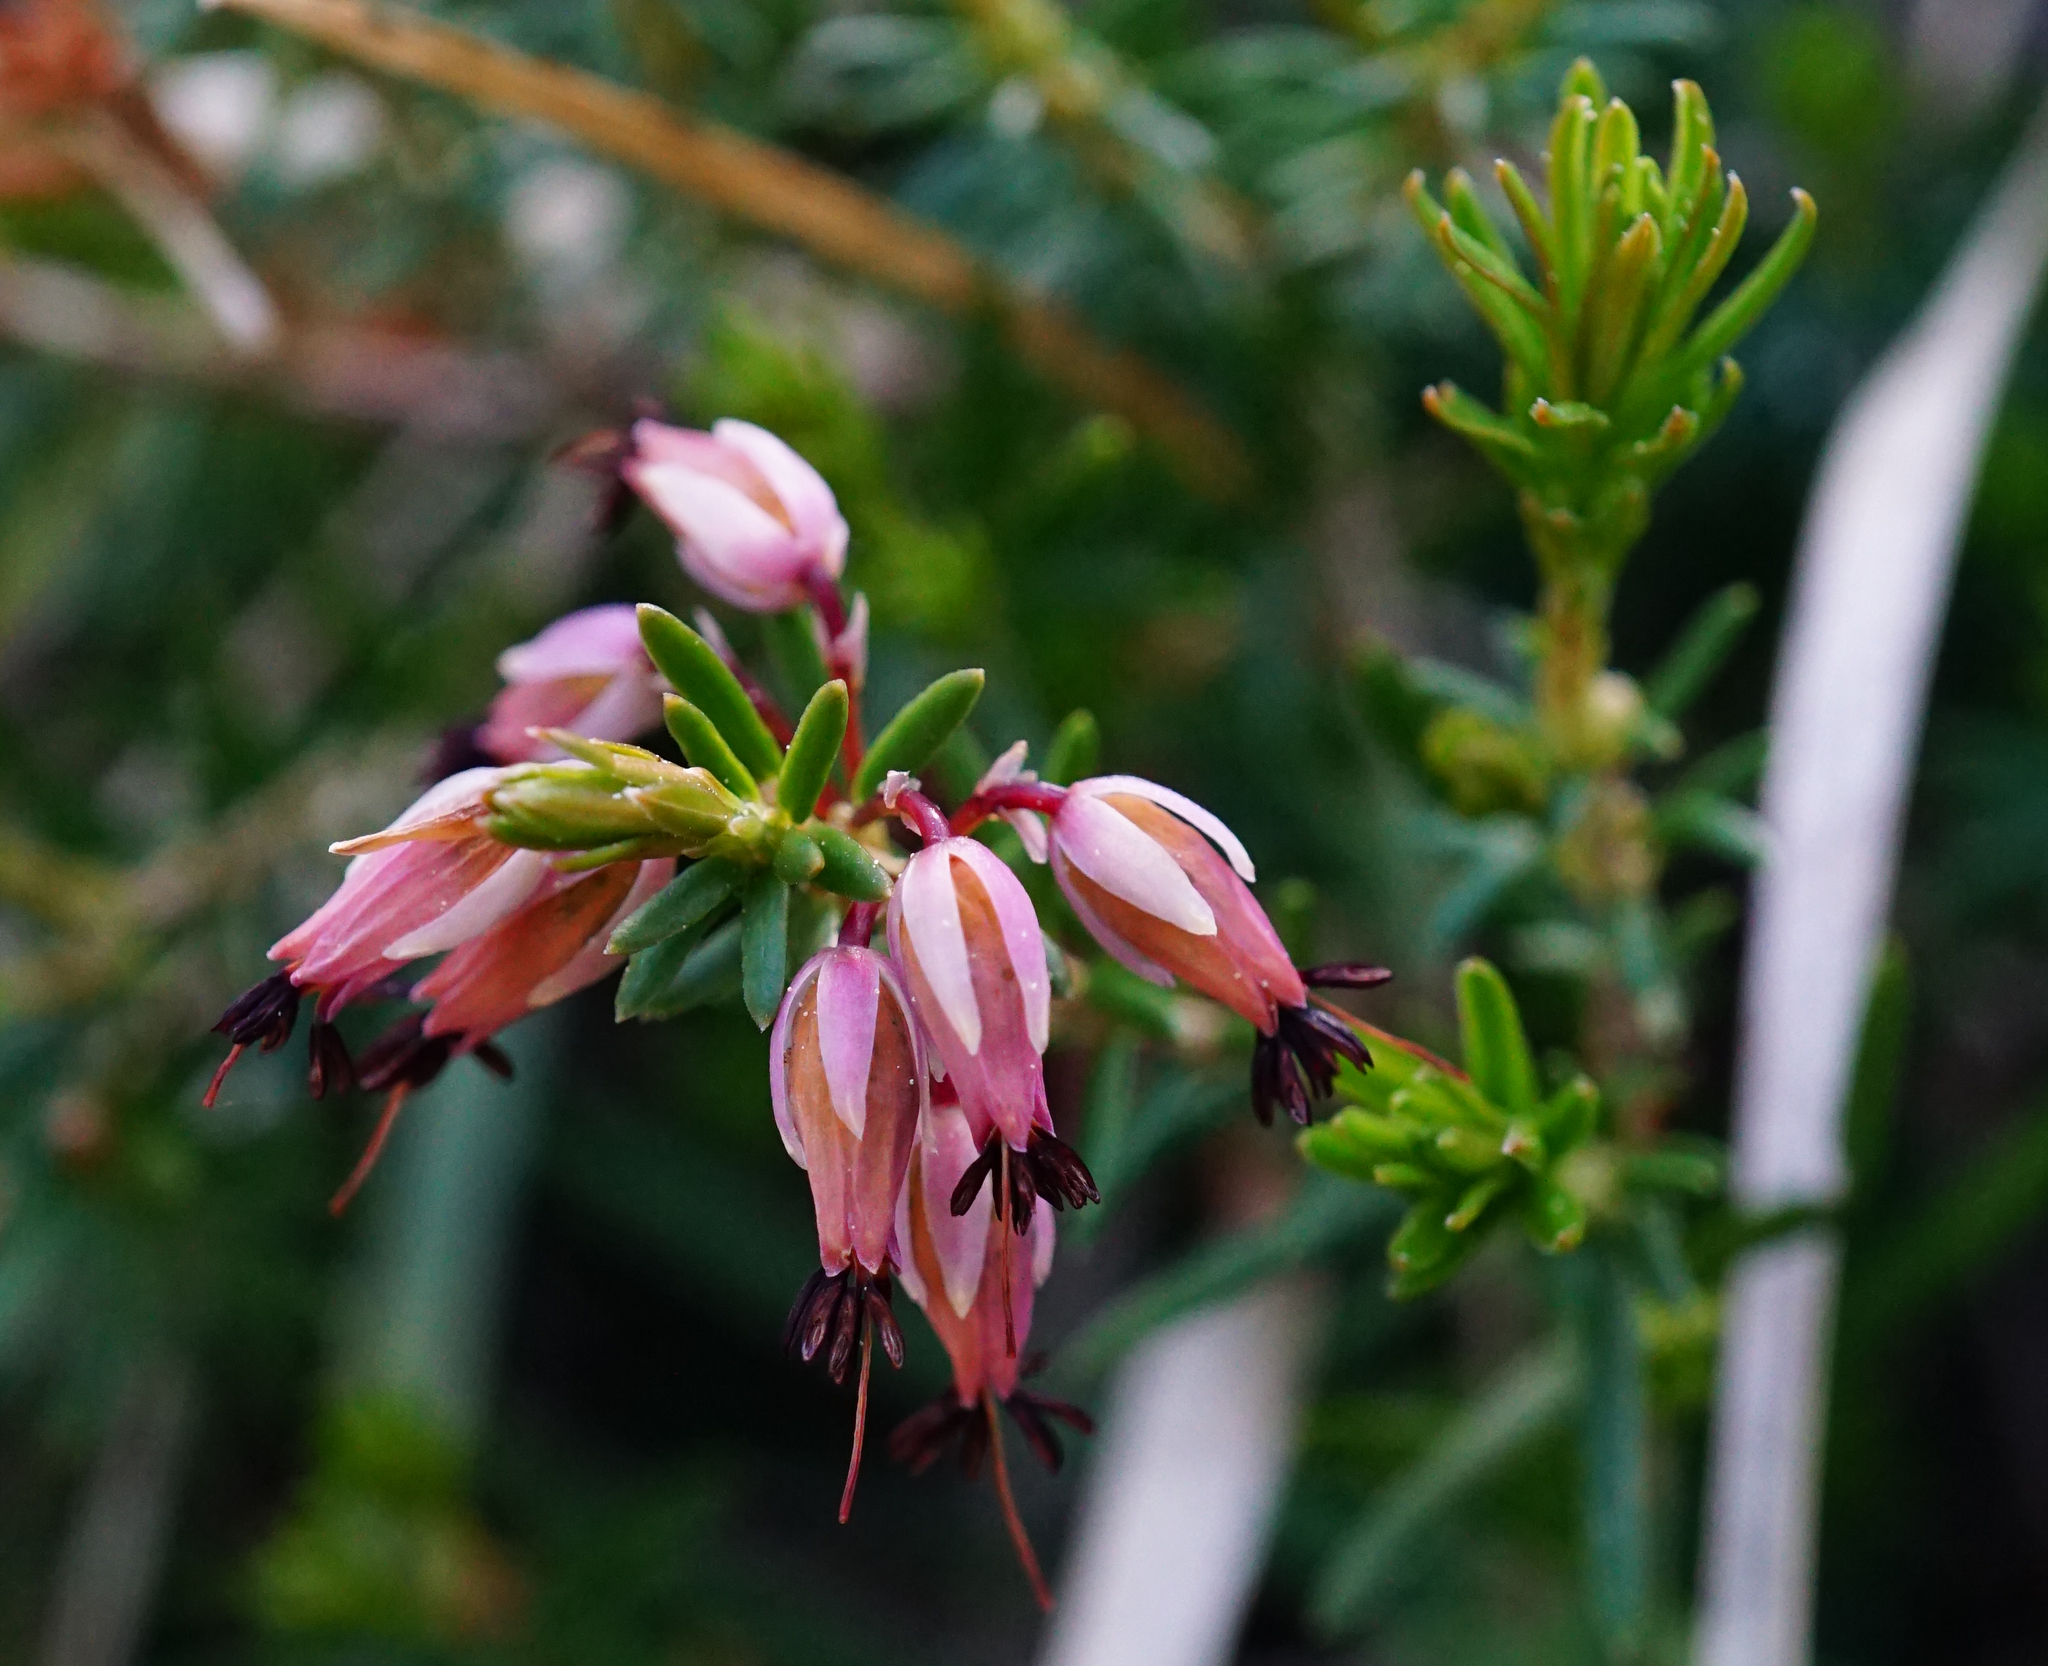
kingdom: Plantae
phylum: Tracheophyta
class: Magnoliopsida
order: Ericales
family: Ericaceae
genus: Erica
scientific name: Erica carnea
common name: Winter heath
